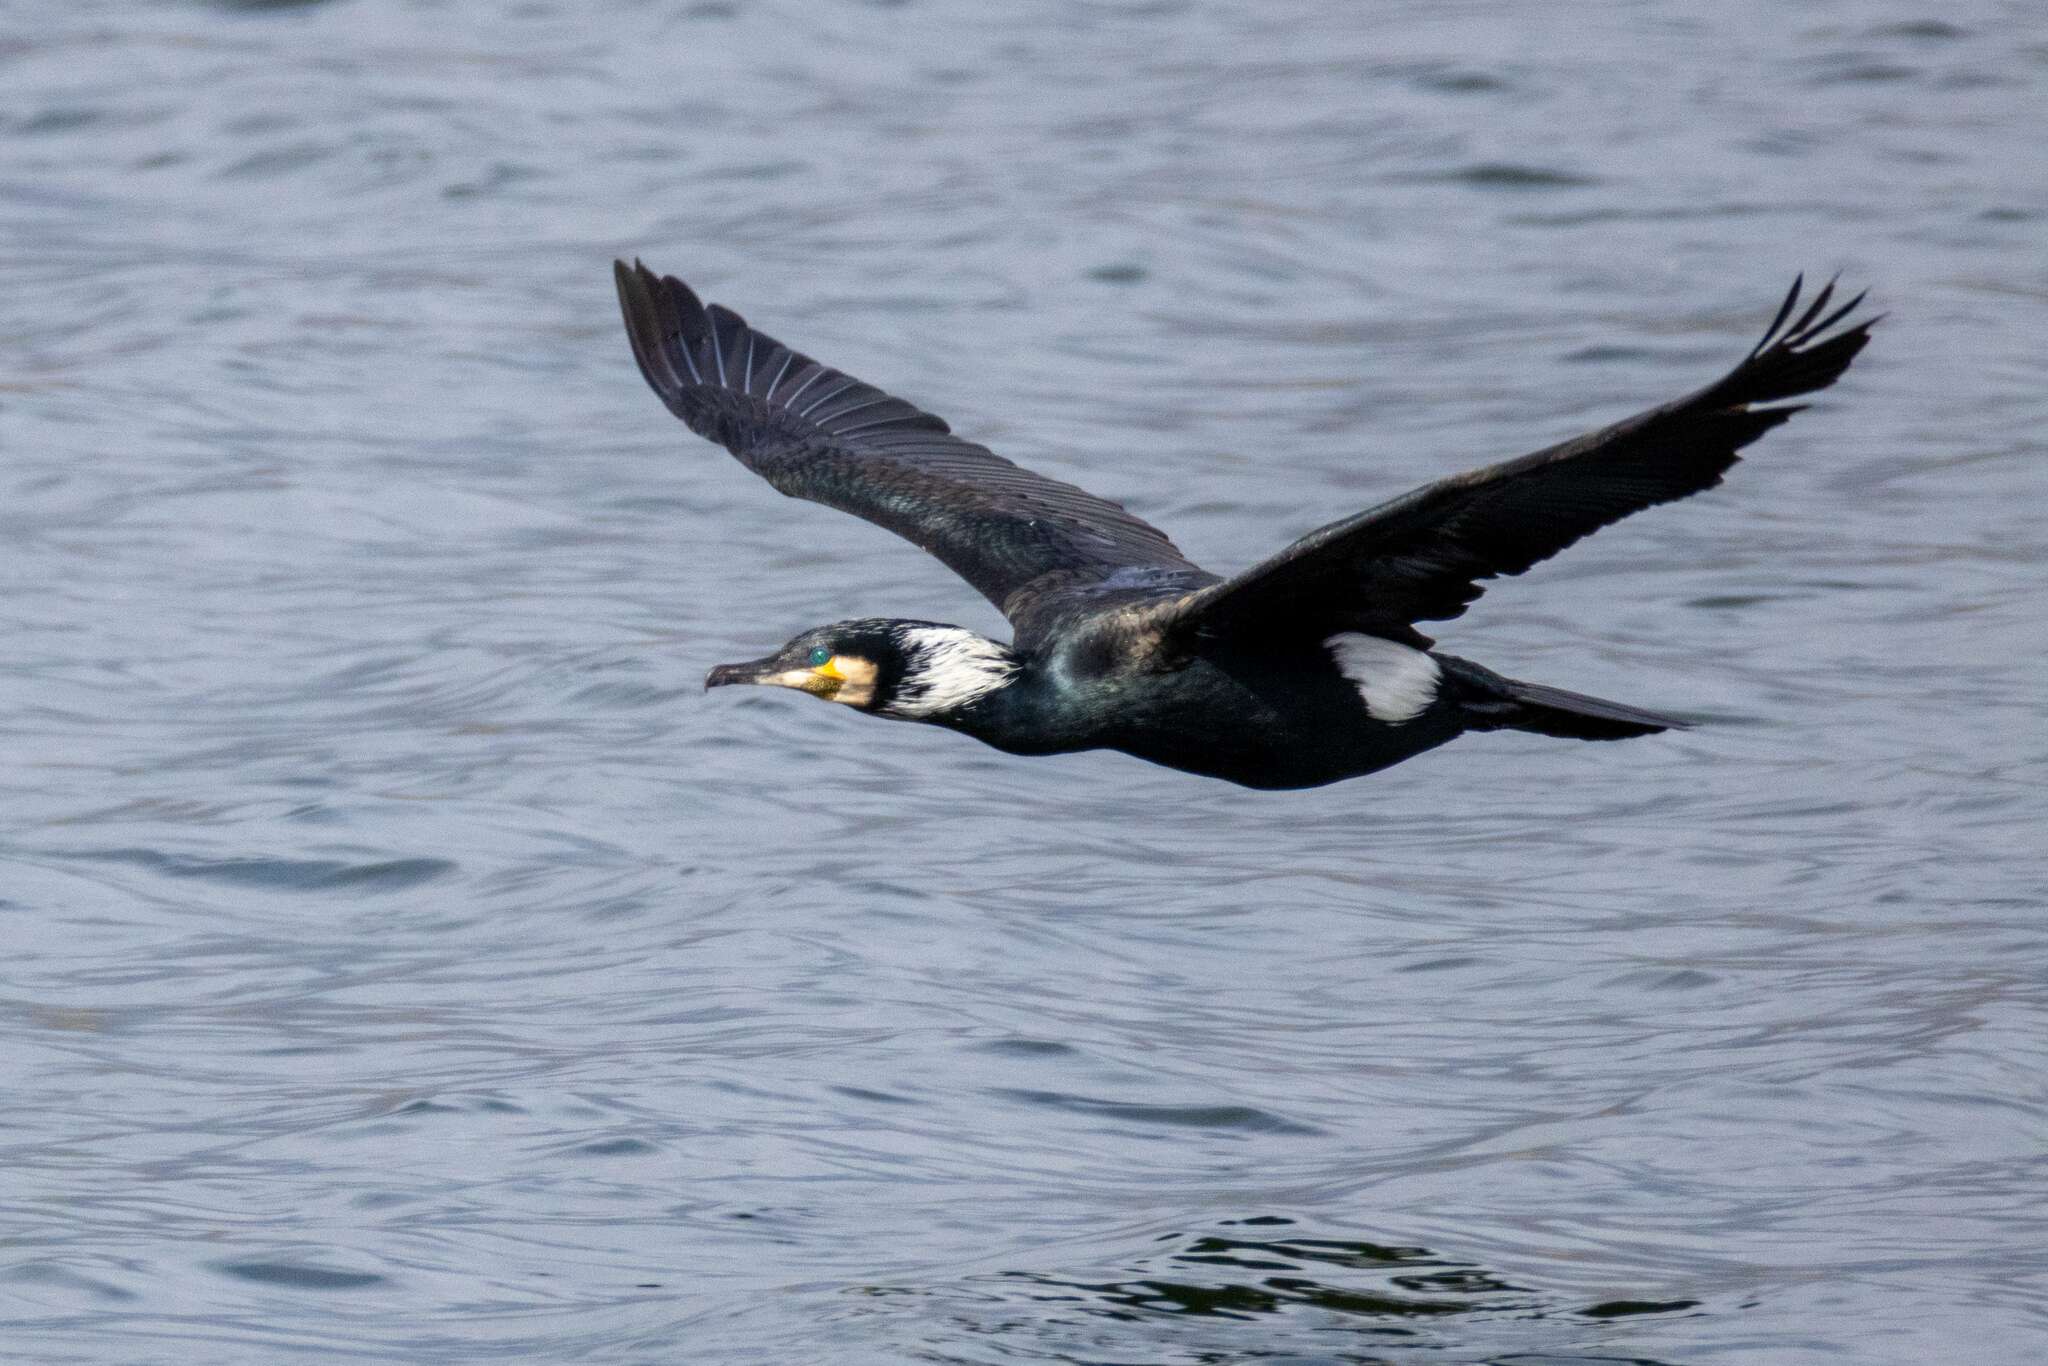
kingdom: Animalia
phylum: Chordata
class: Aves
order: Suliformes
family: Phalacrocoracidae
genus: Phalacrocorax
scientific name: Phalacrocorax carbo
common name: Great cormorant
